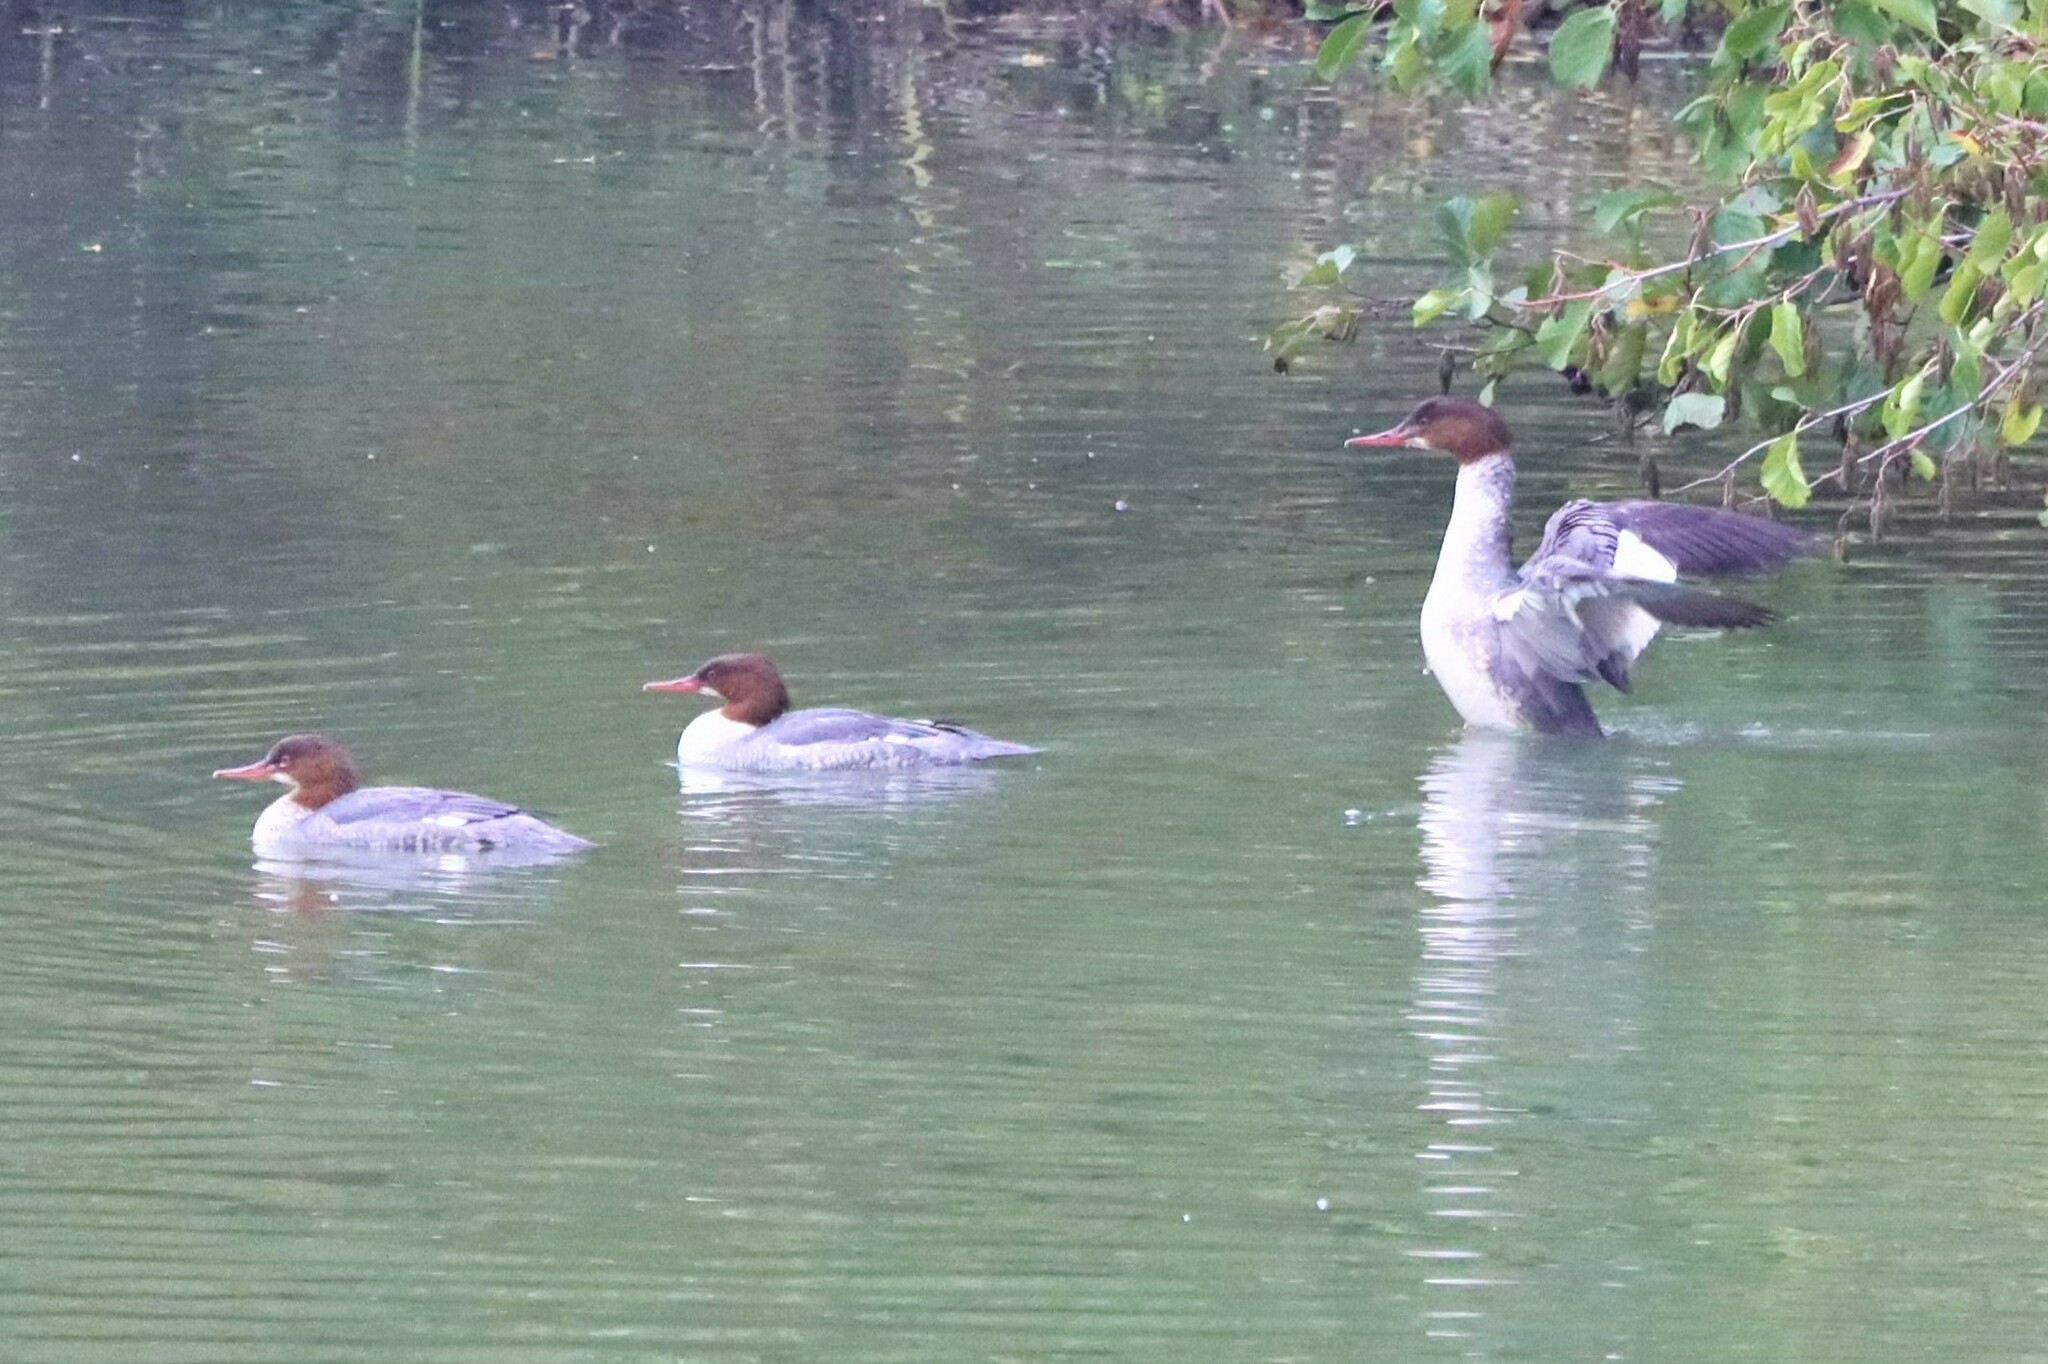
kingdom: Animalia
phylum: Chordata
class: Aves
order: Anseriformes
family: Anatidae
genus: Mergus
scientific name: Mergus merganser
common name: Common merganser
